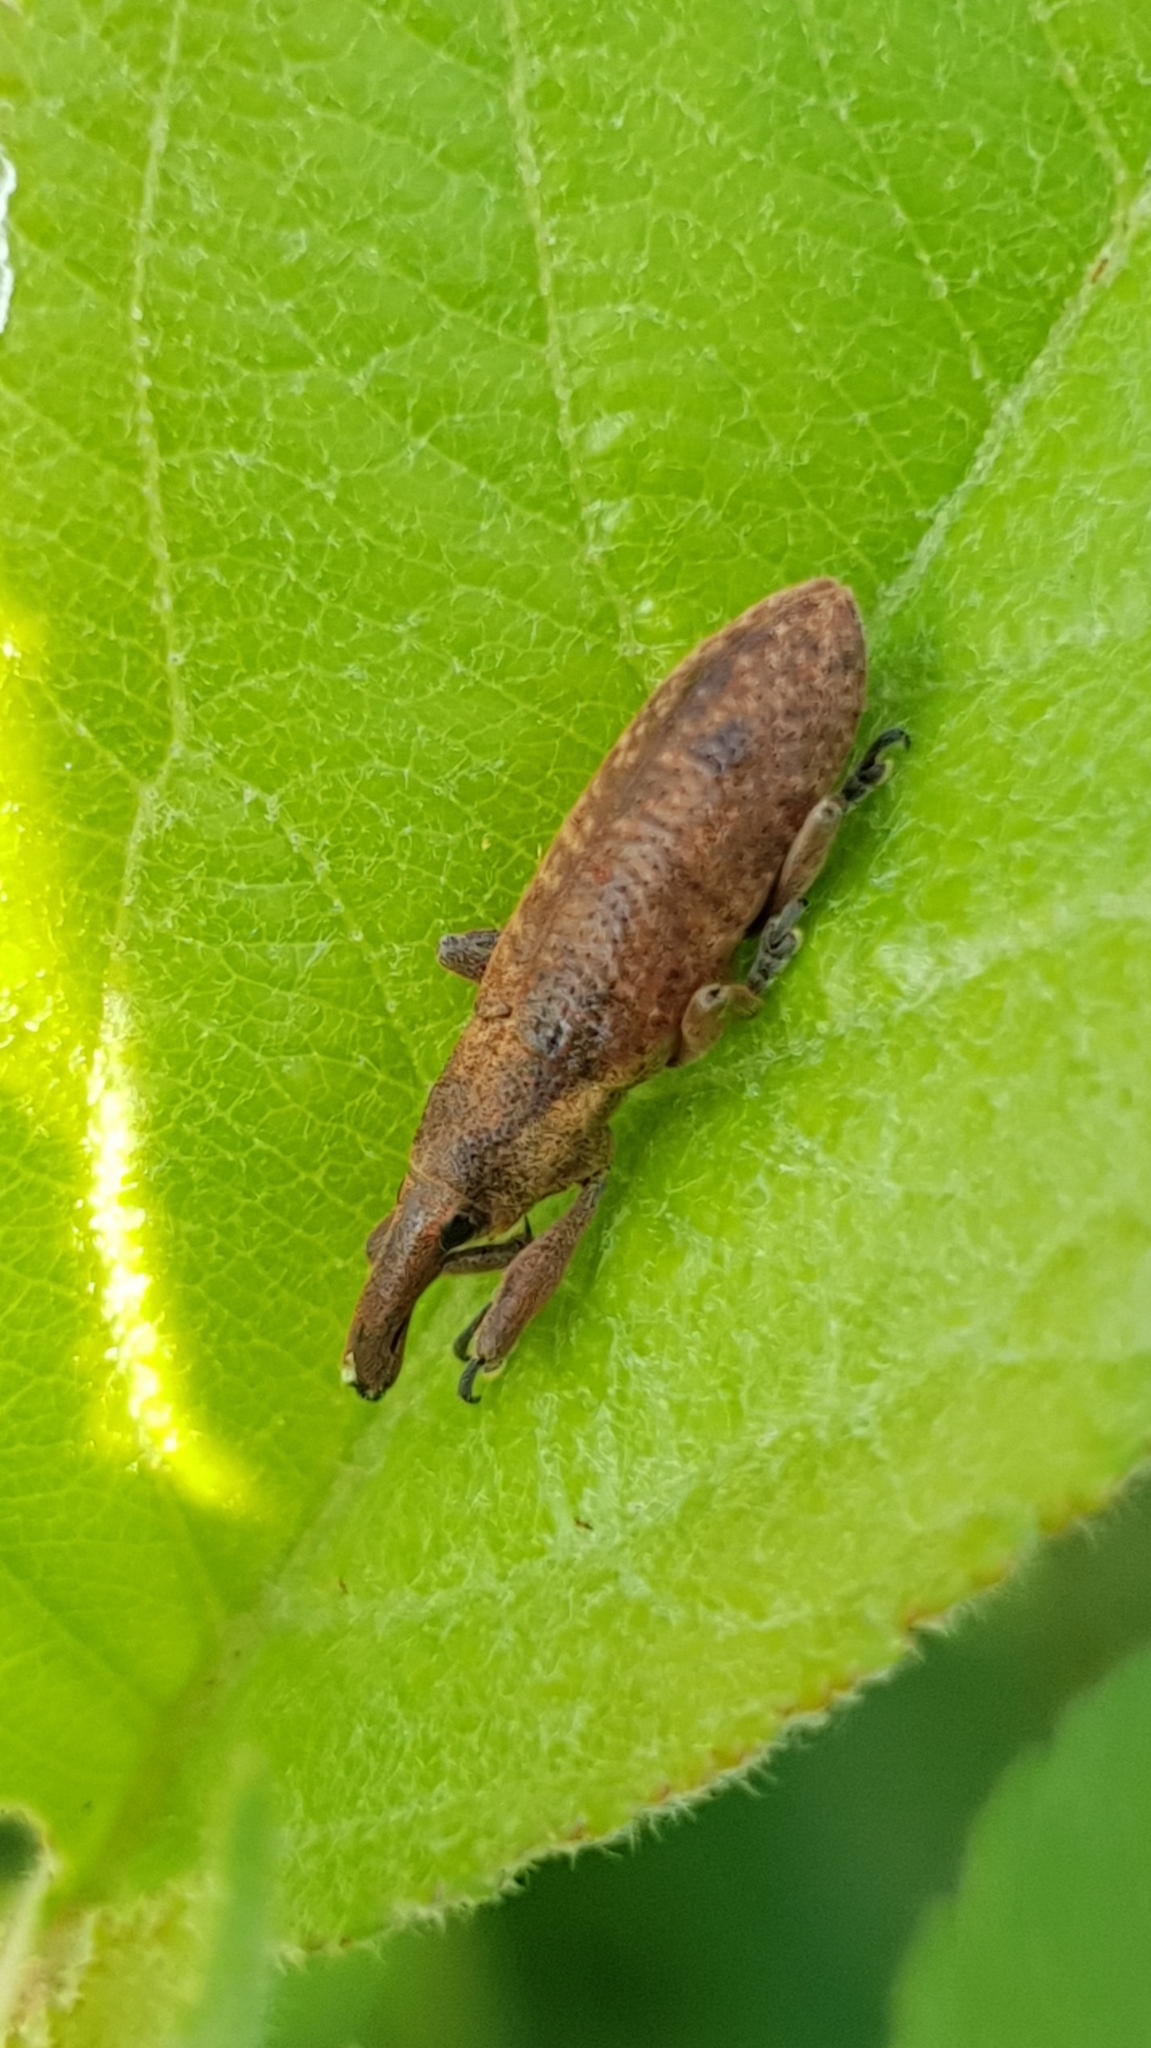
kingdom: Animalia
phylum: Arthropoda
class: Insecta
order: Coleoptera
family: Curculionidae
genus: Lixus
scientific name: Lixus pulverulentus
